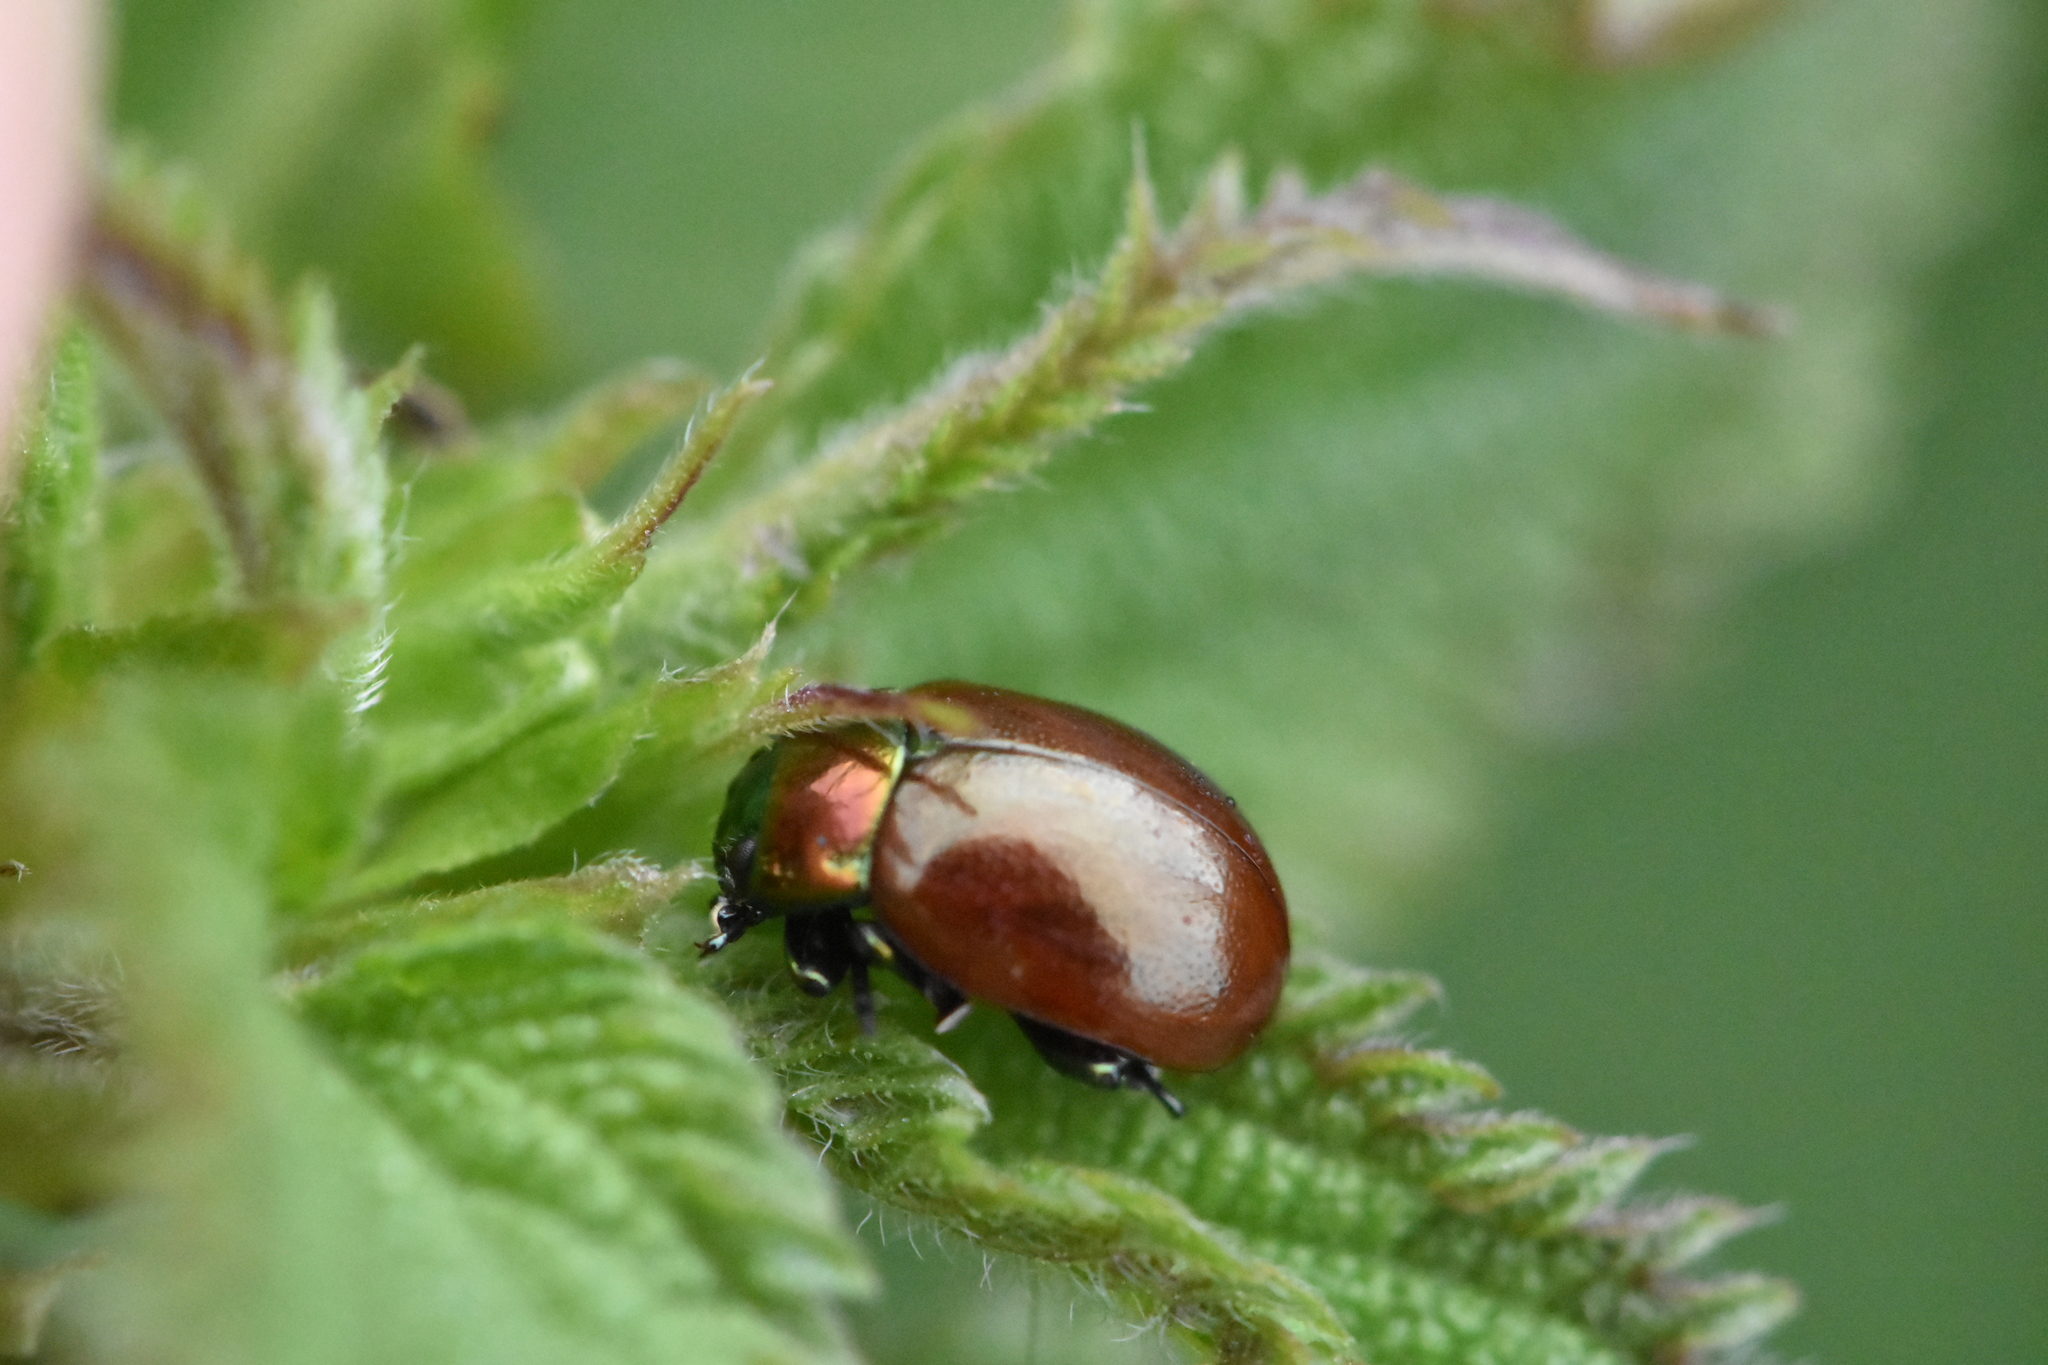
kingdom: Animalia
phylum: Arthropoda
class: Insecta
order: Coleoptera
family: Chrysomelidae
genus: Chrysomela
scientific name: Chrysomela polita
